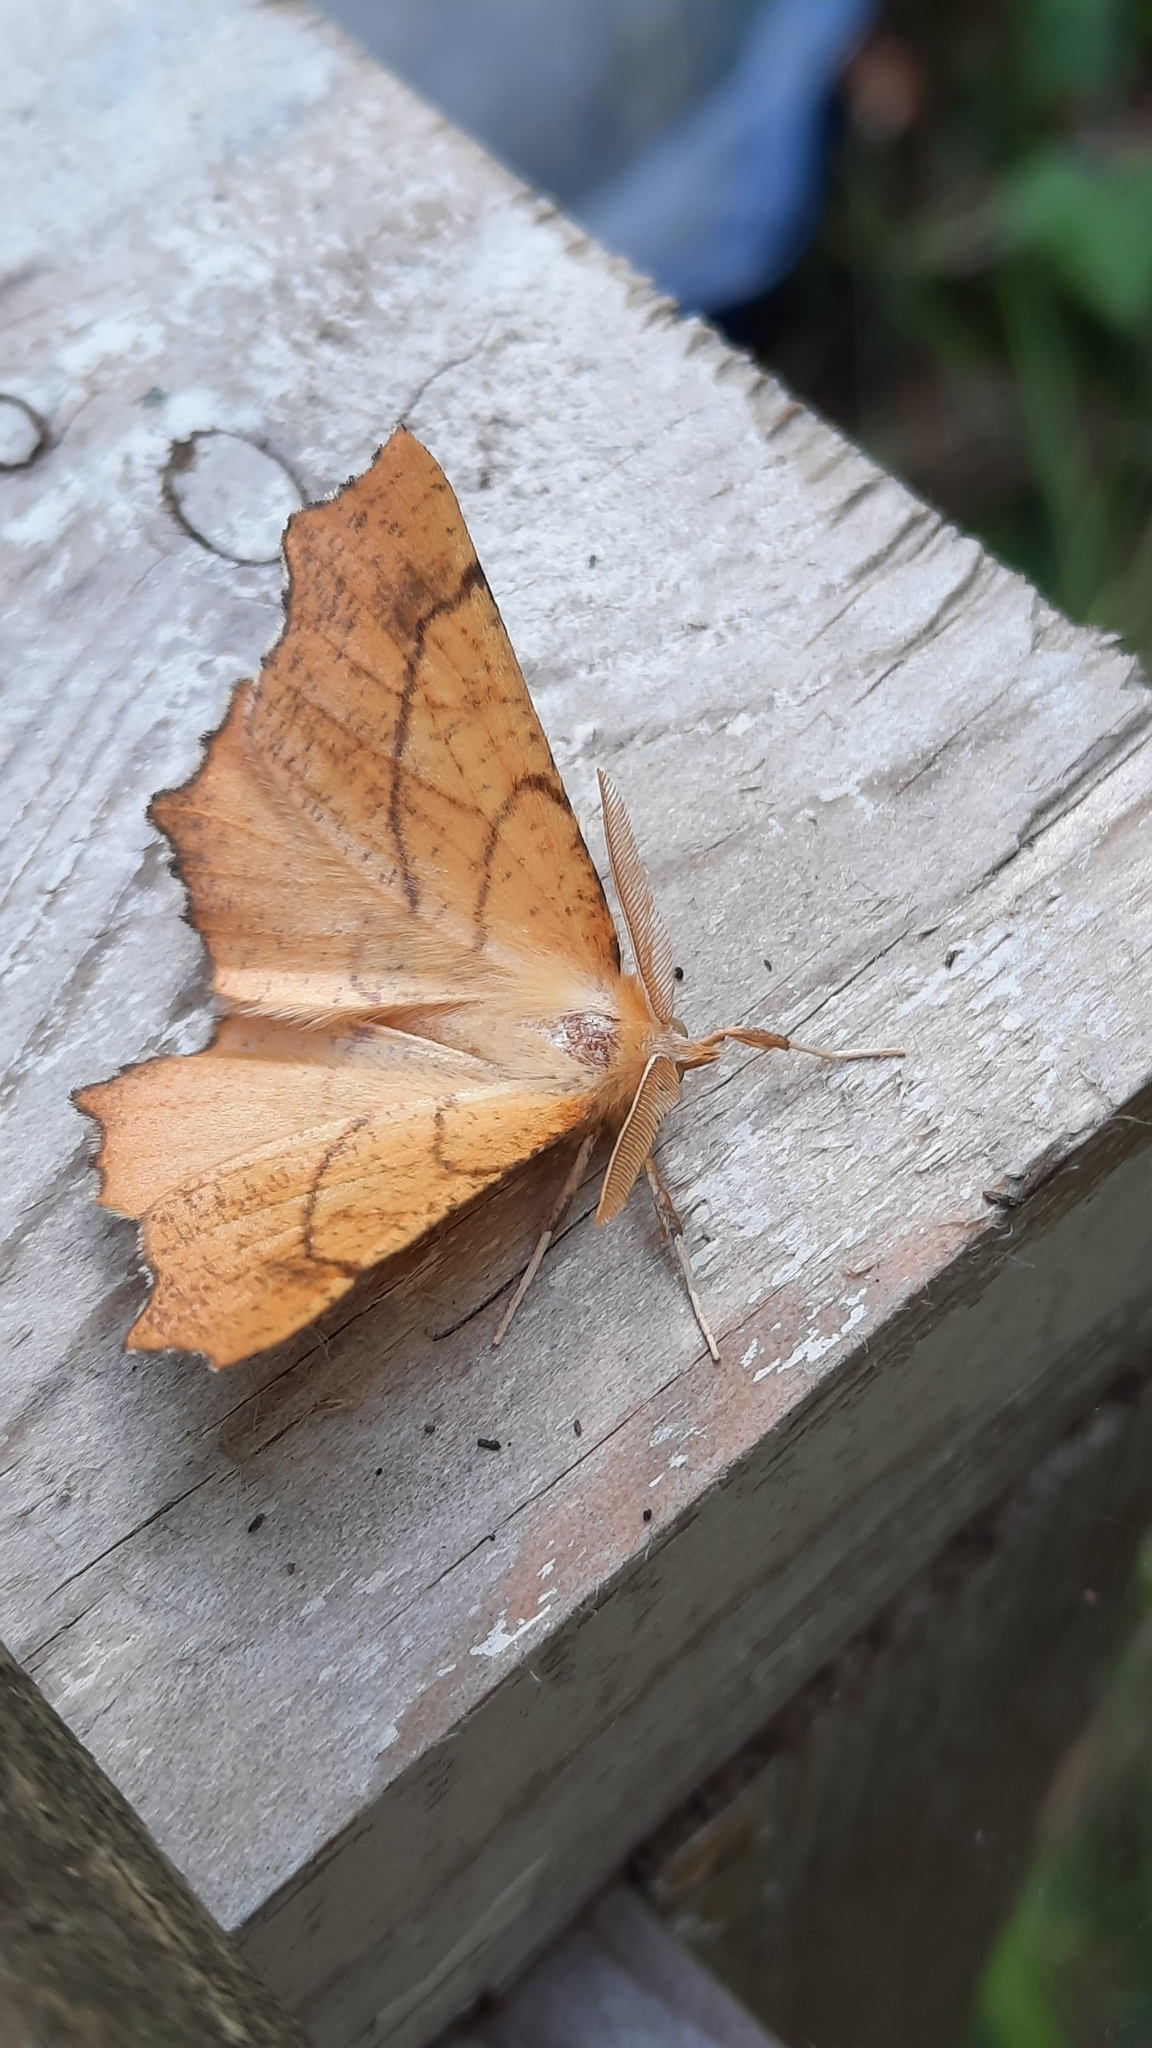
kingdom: Animalia
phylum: Arthropoda
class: Insecta
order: Lepidoptera
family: Geometridae
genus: Ennomos
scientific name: Ennomos quercinaria
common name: August thorn
